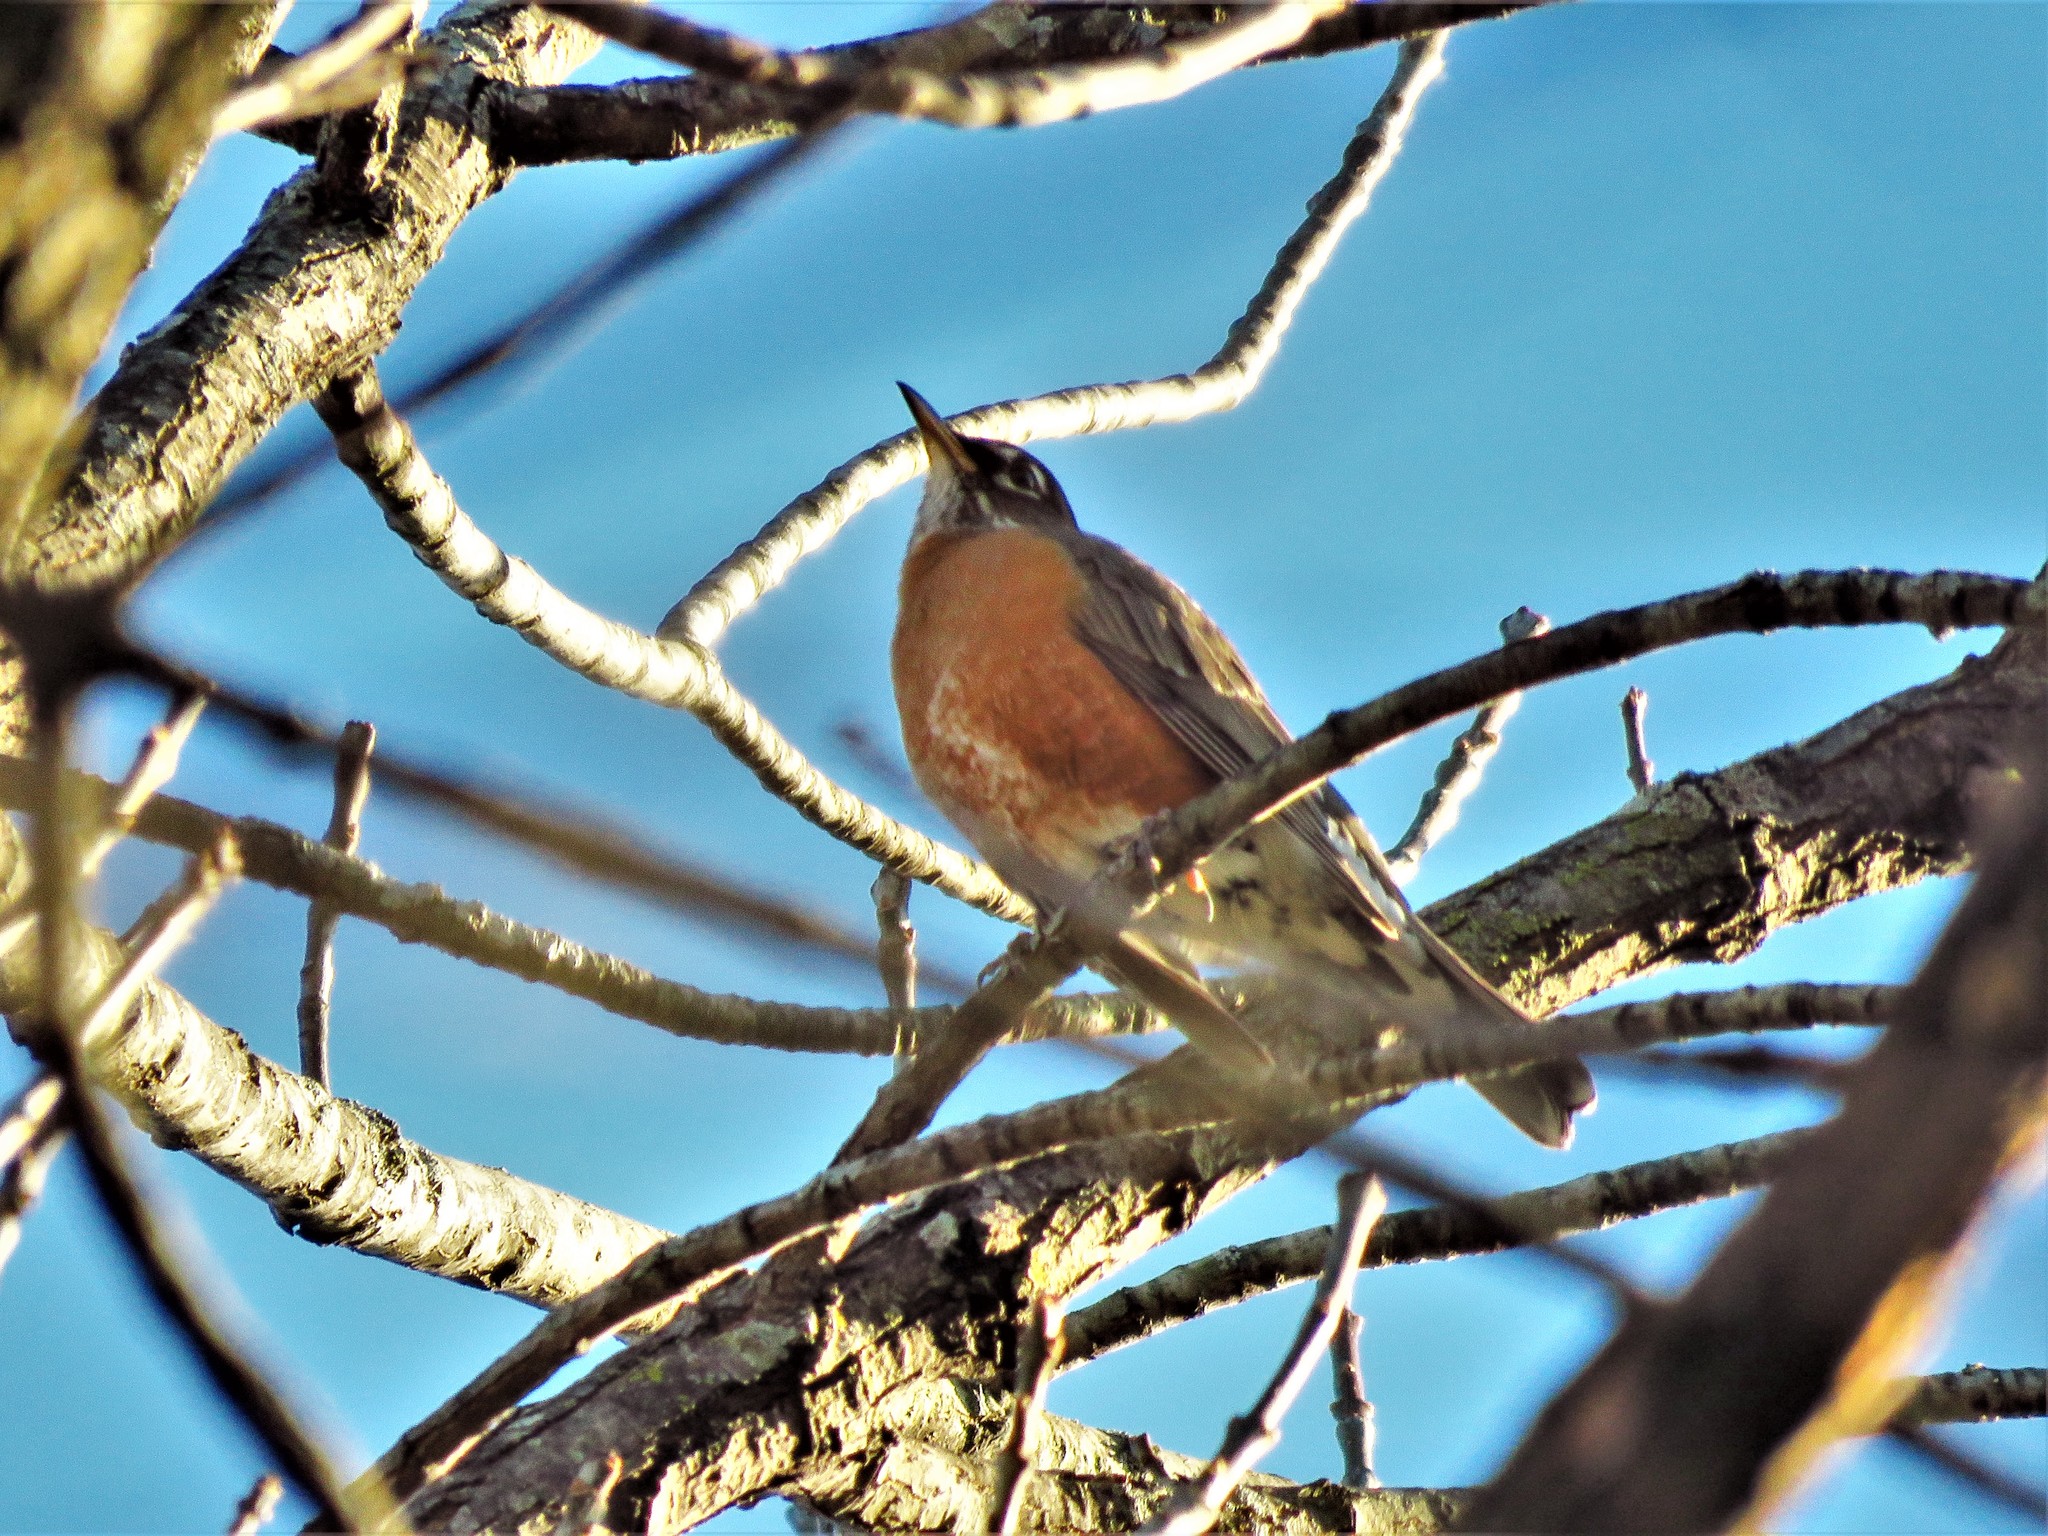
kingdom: Animalia
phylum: Chordata
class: Aves
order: Passeriformes
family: Turdidae
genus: Turdus
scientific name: Turdus migratorius
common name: American robin
